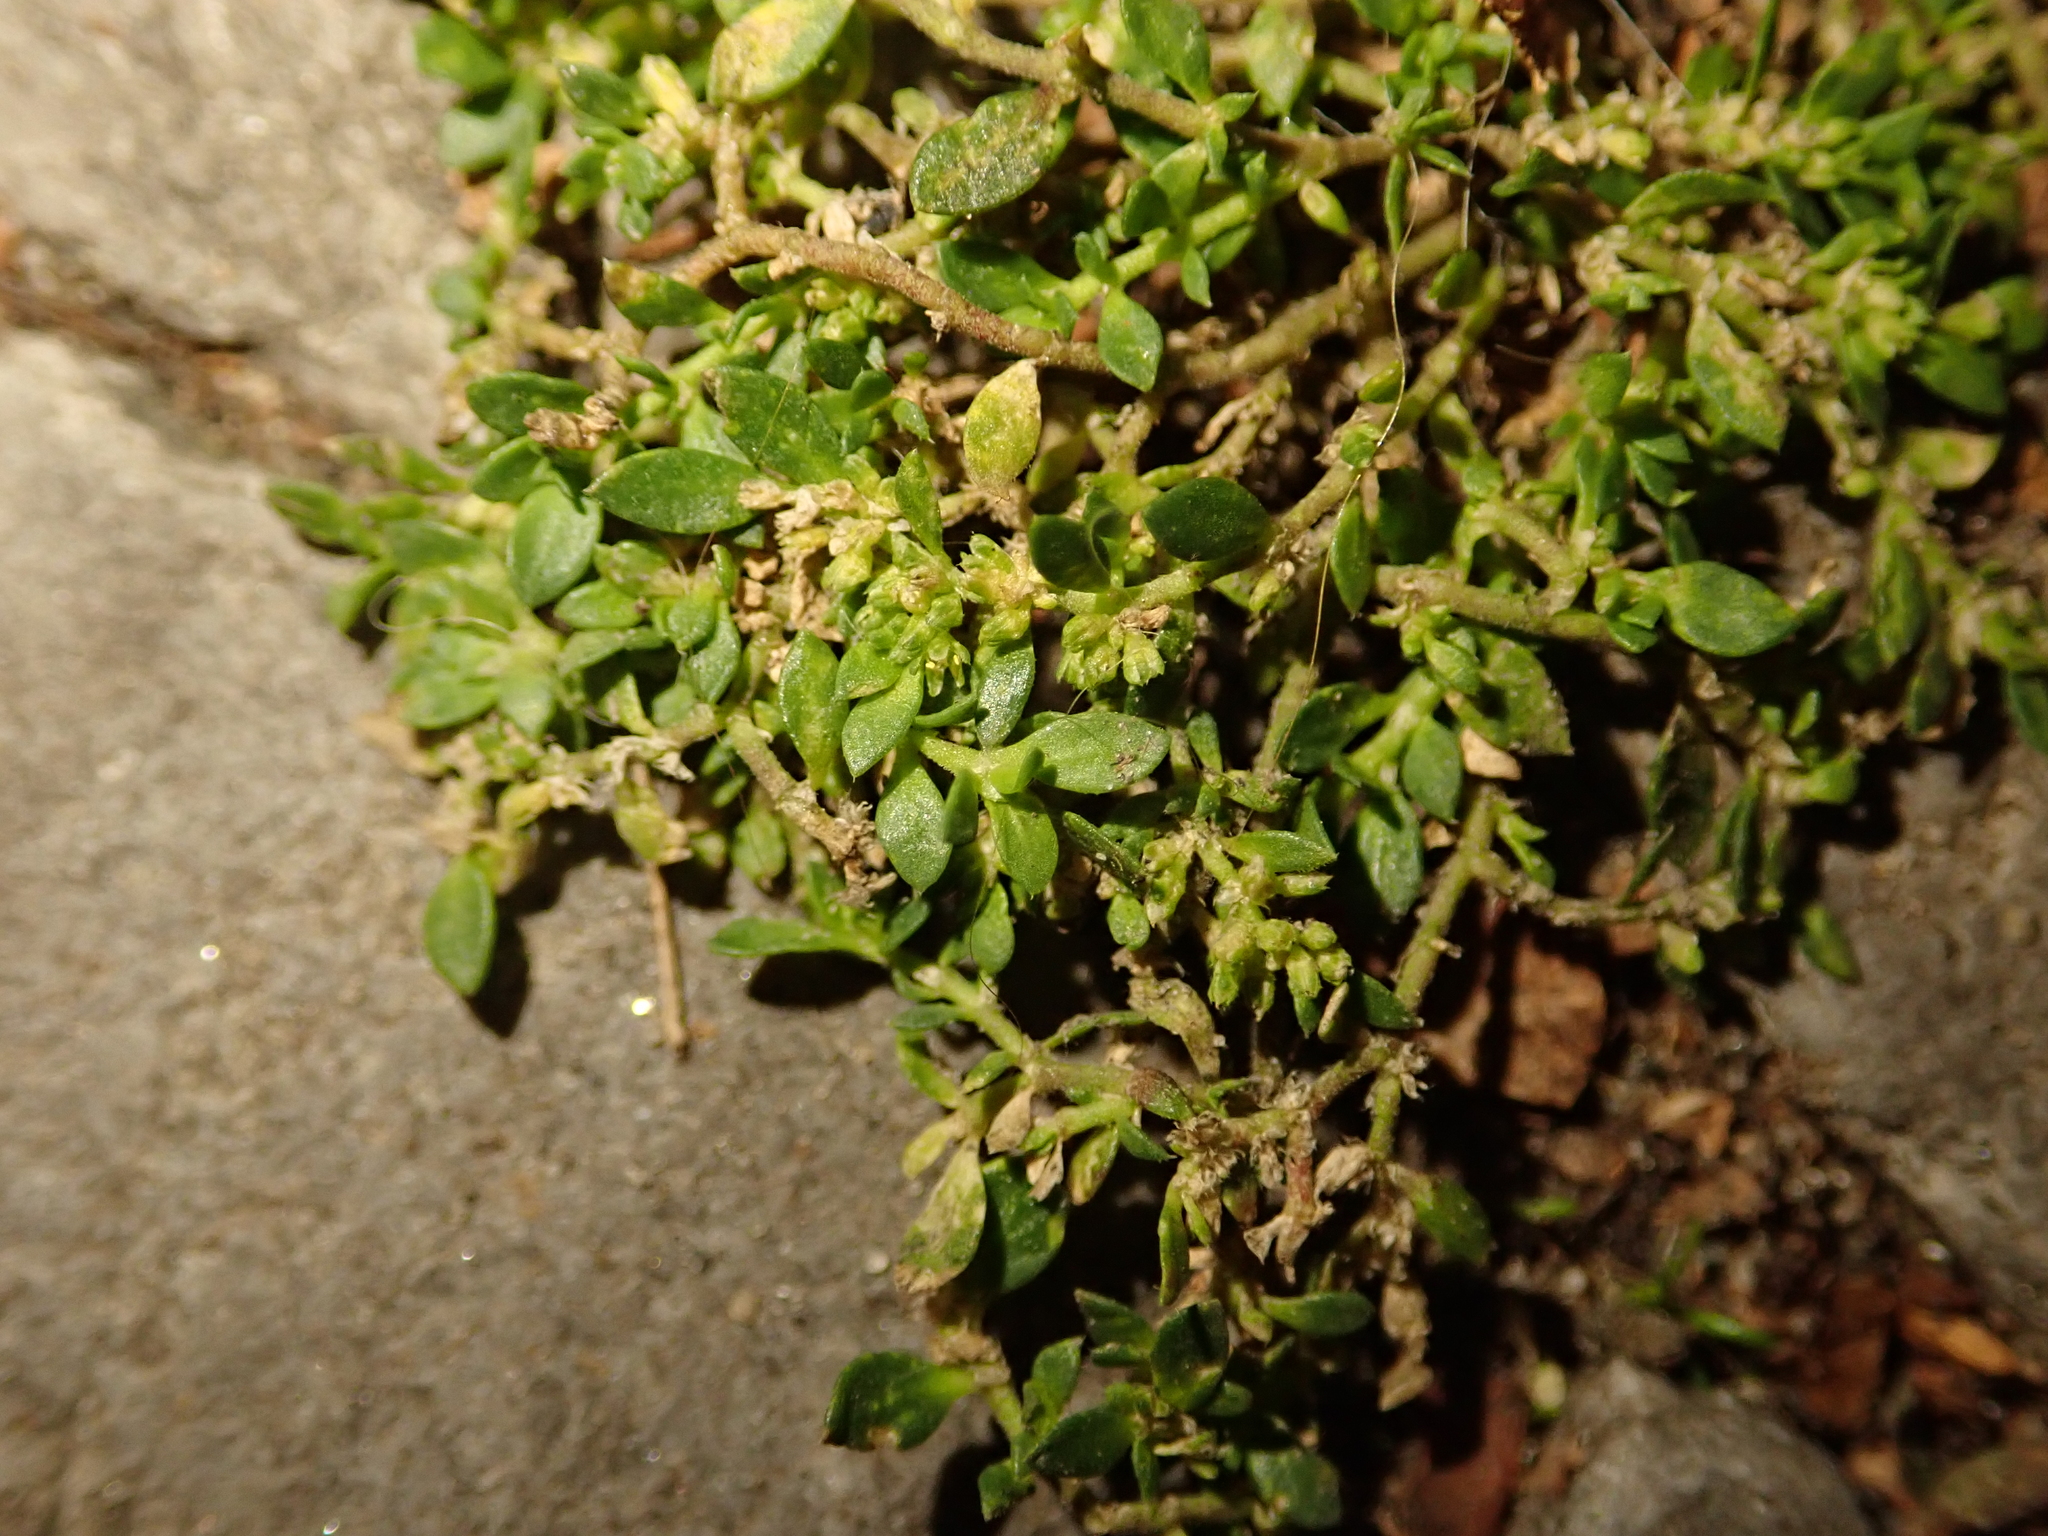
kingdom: Plantae
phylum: Tracheophyta
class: Magnoliopsida
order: Caryophyllales
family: Caryophyllaceae
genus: Herniaria
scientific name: Herniaria glabra
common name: Smooth rupturewort
